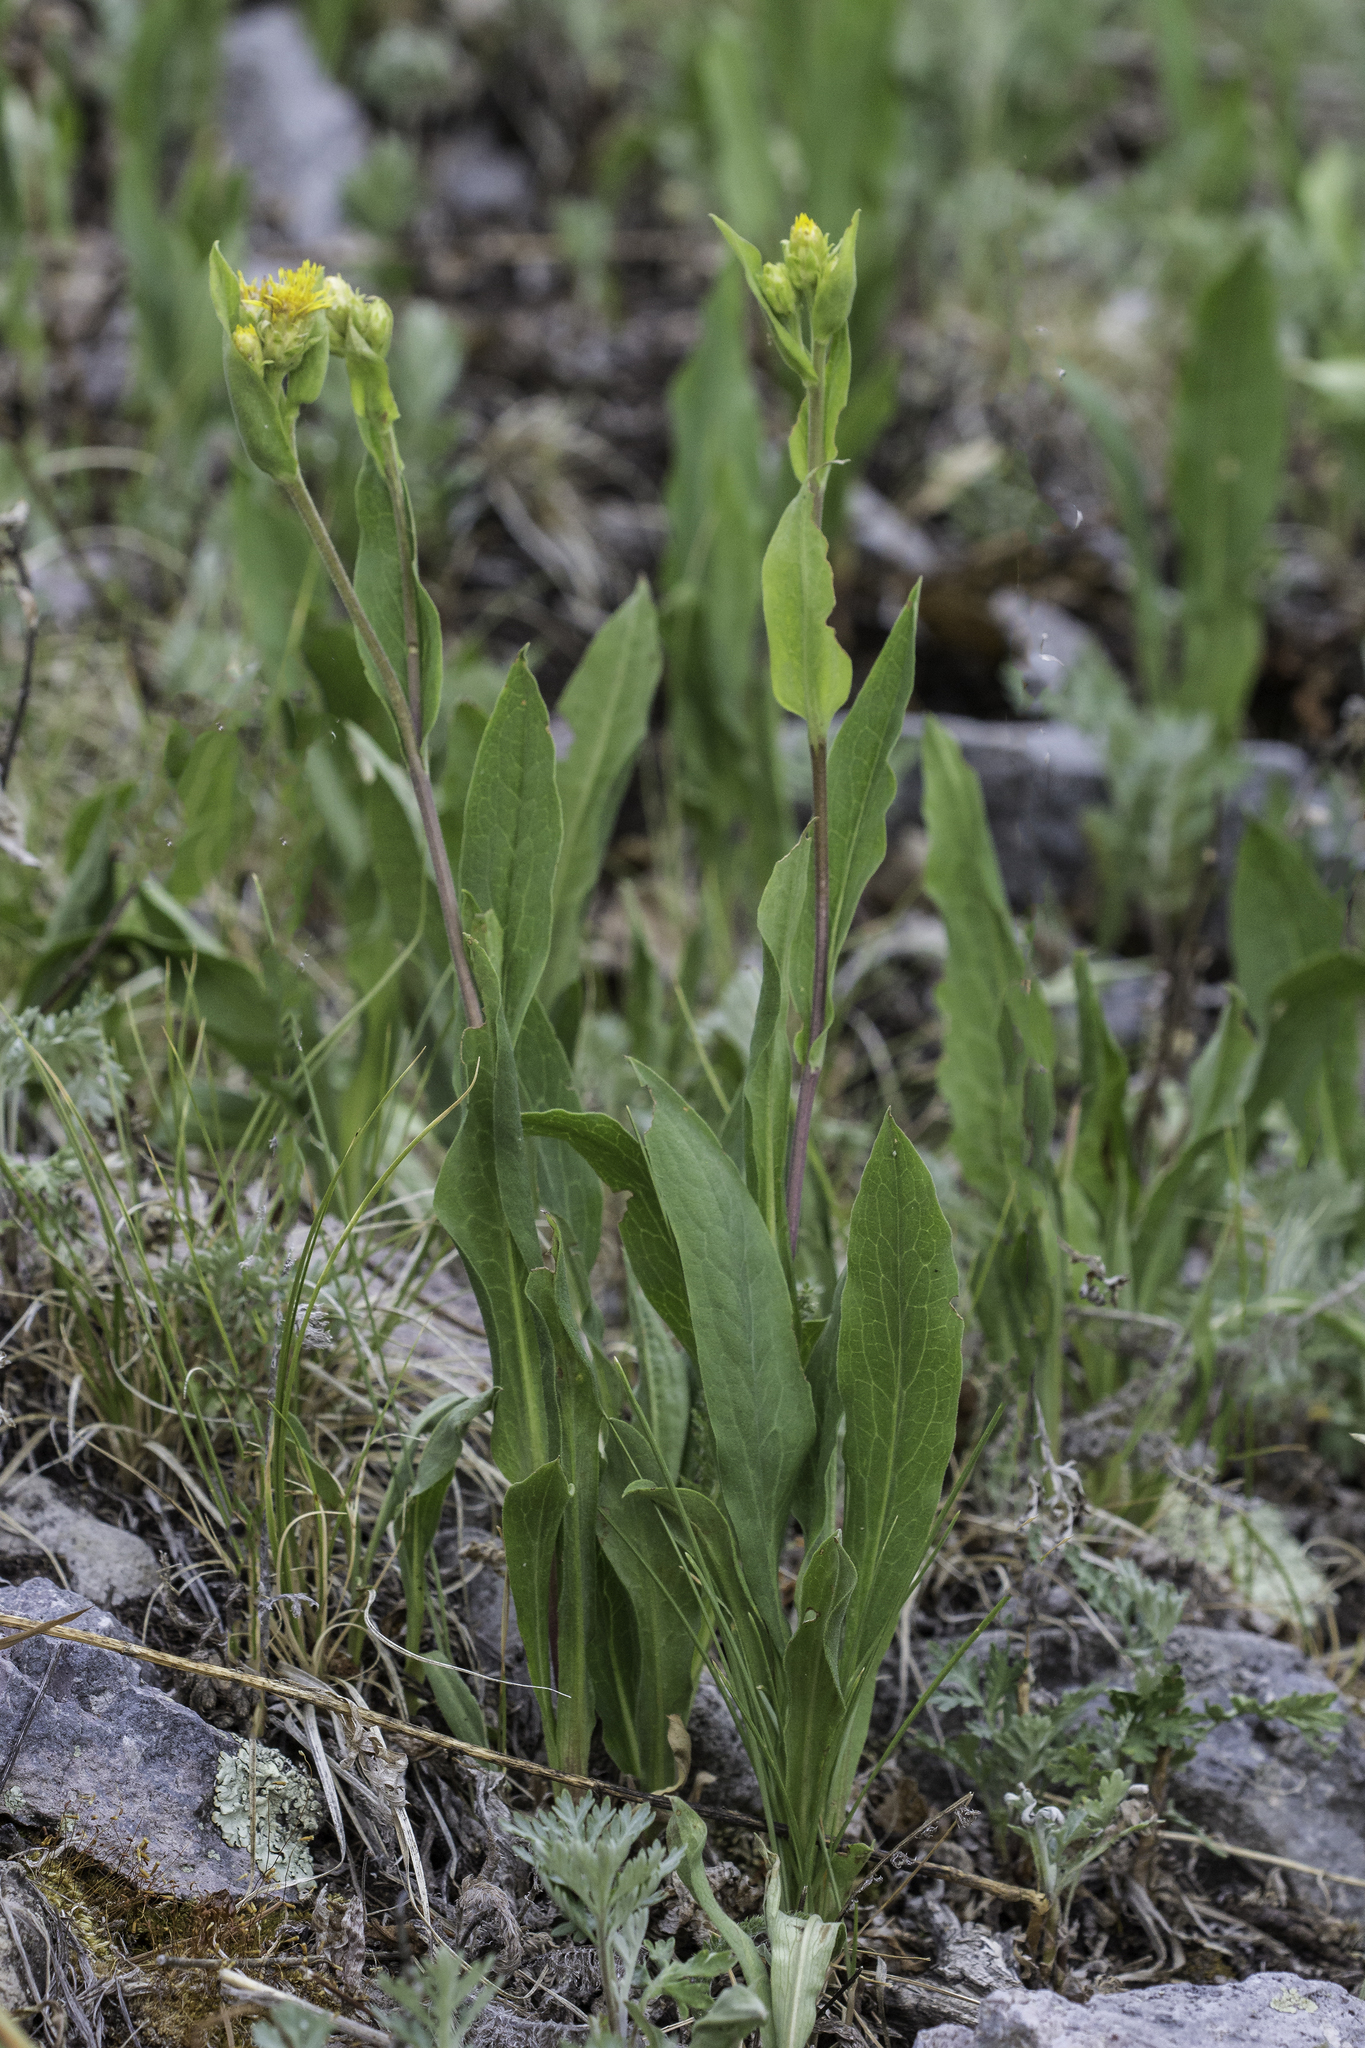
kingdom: Plantae
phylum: Tracheophyta
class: Magnoliopsida
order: Asterales
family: Asteraceae
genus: Oreochrysum
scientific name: Oreochrysum parryi
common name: Parry's goldenweed
